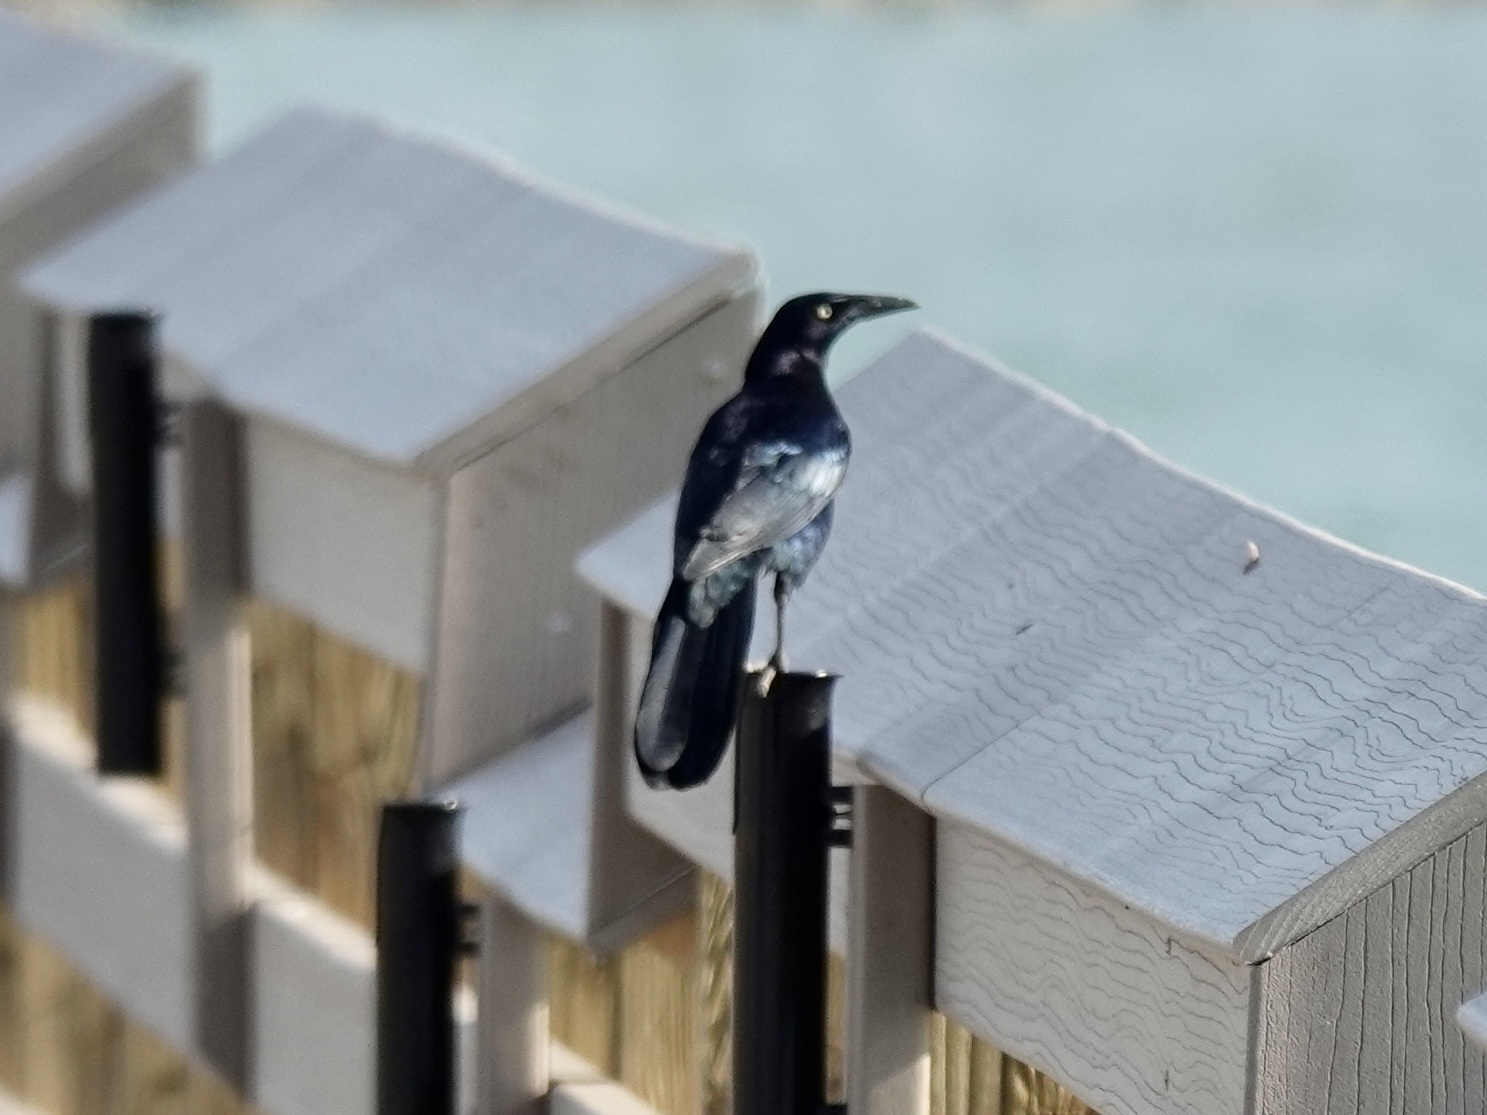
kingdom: Animalia
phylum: Chordata
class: Aves
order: Passeriformes
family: Icteridae
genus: Quiscalus
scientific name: Quiscalus mexicanus
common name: Great-tailed grackle
